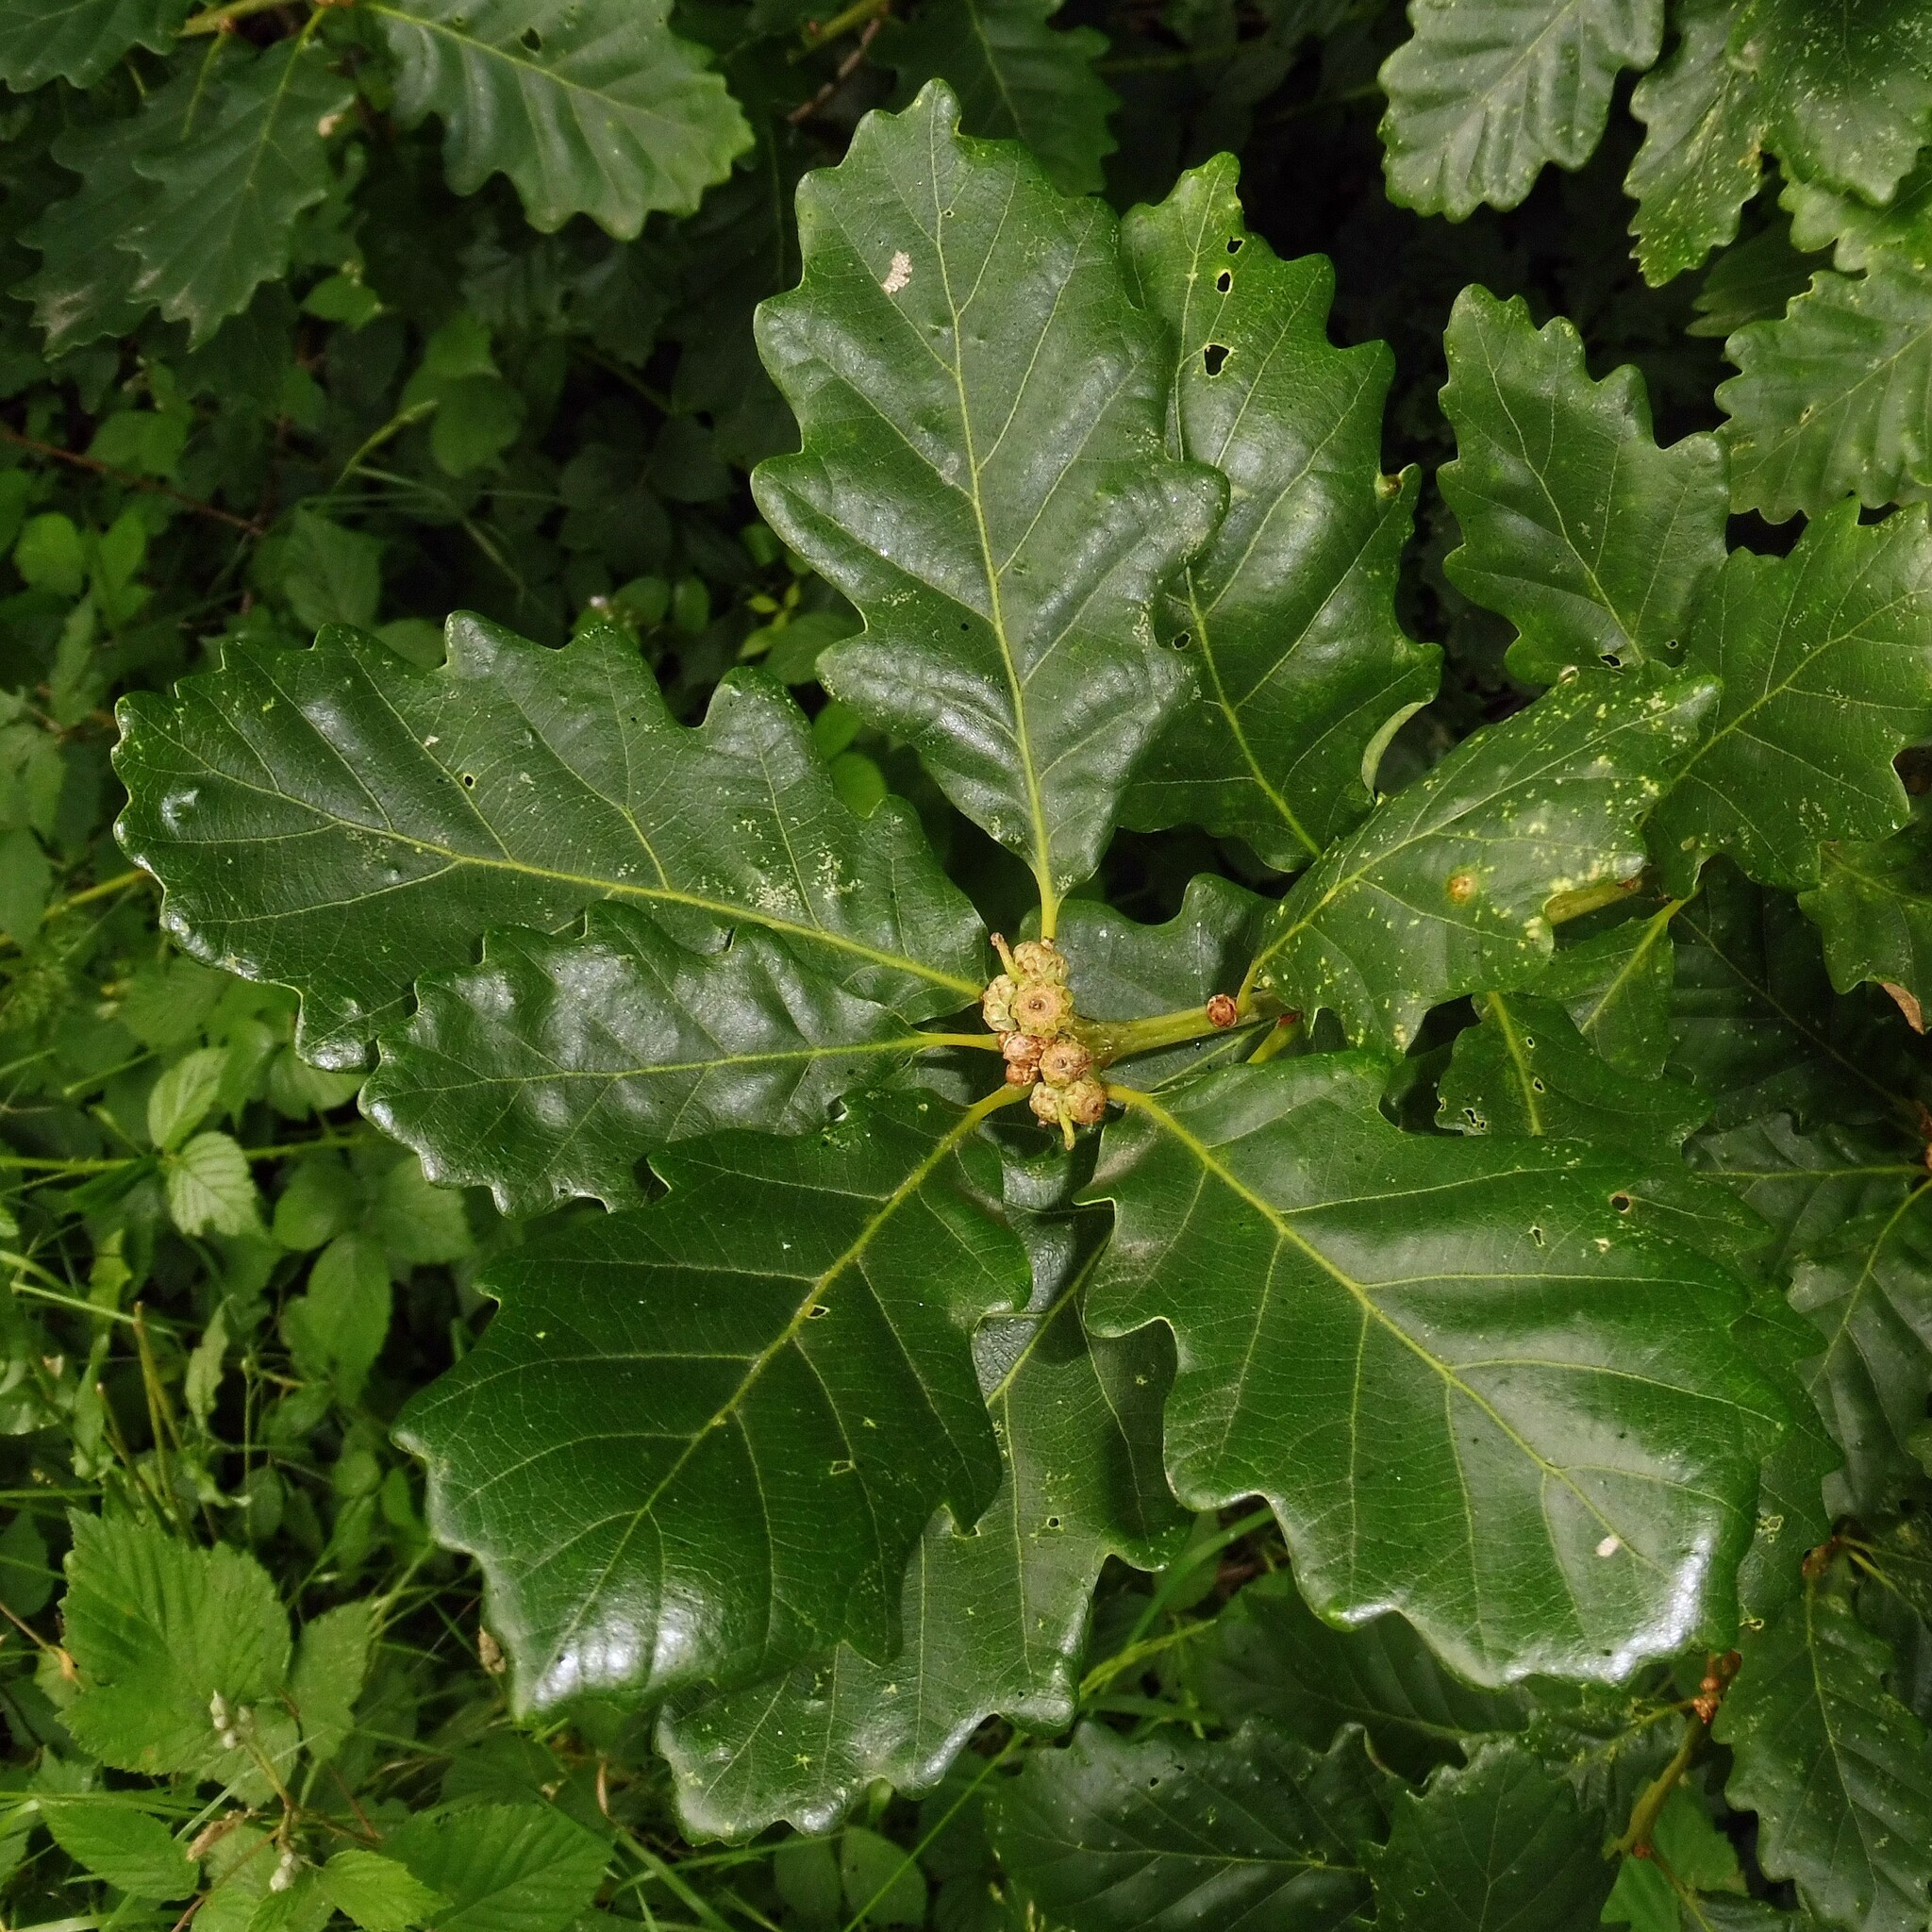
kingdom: Plantae
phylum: Tracheophyta
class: Magnoliopsida
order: Fagales
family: Fagaceae
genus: Quercus
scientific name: Quercus rosacea
